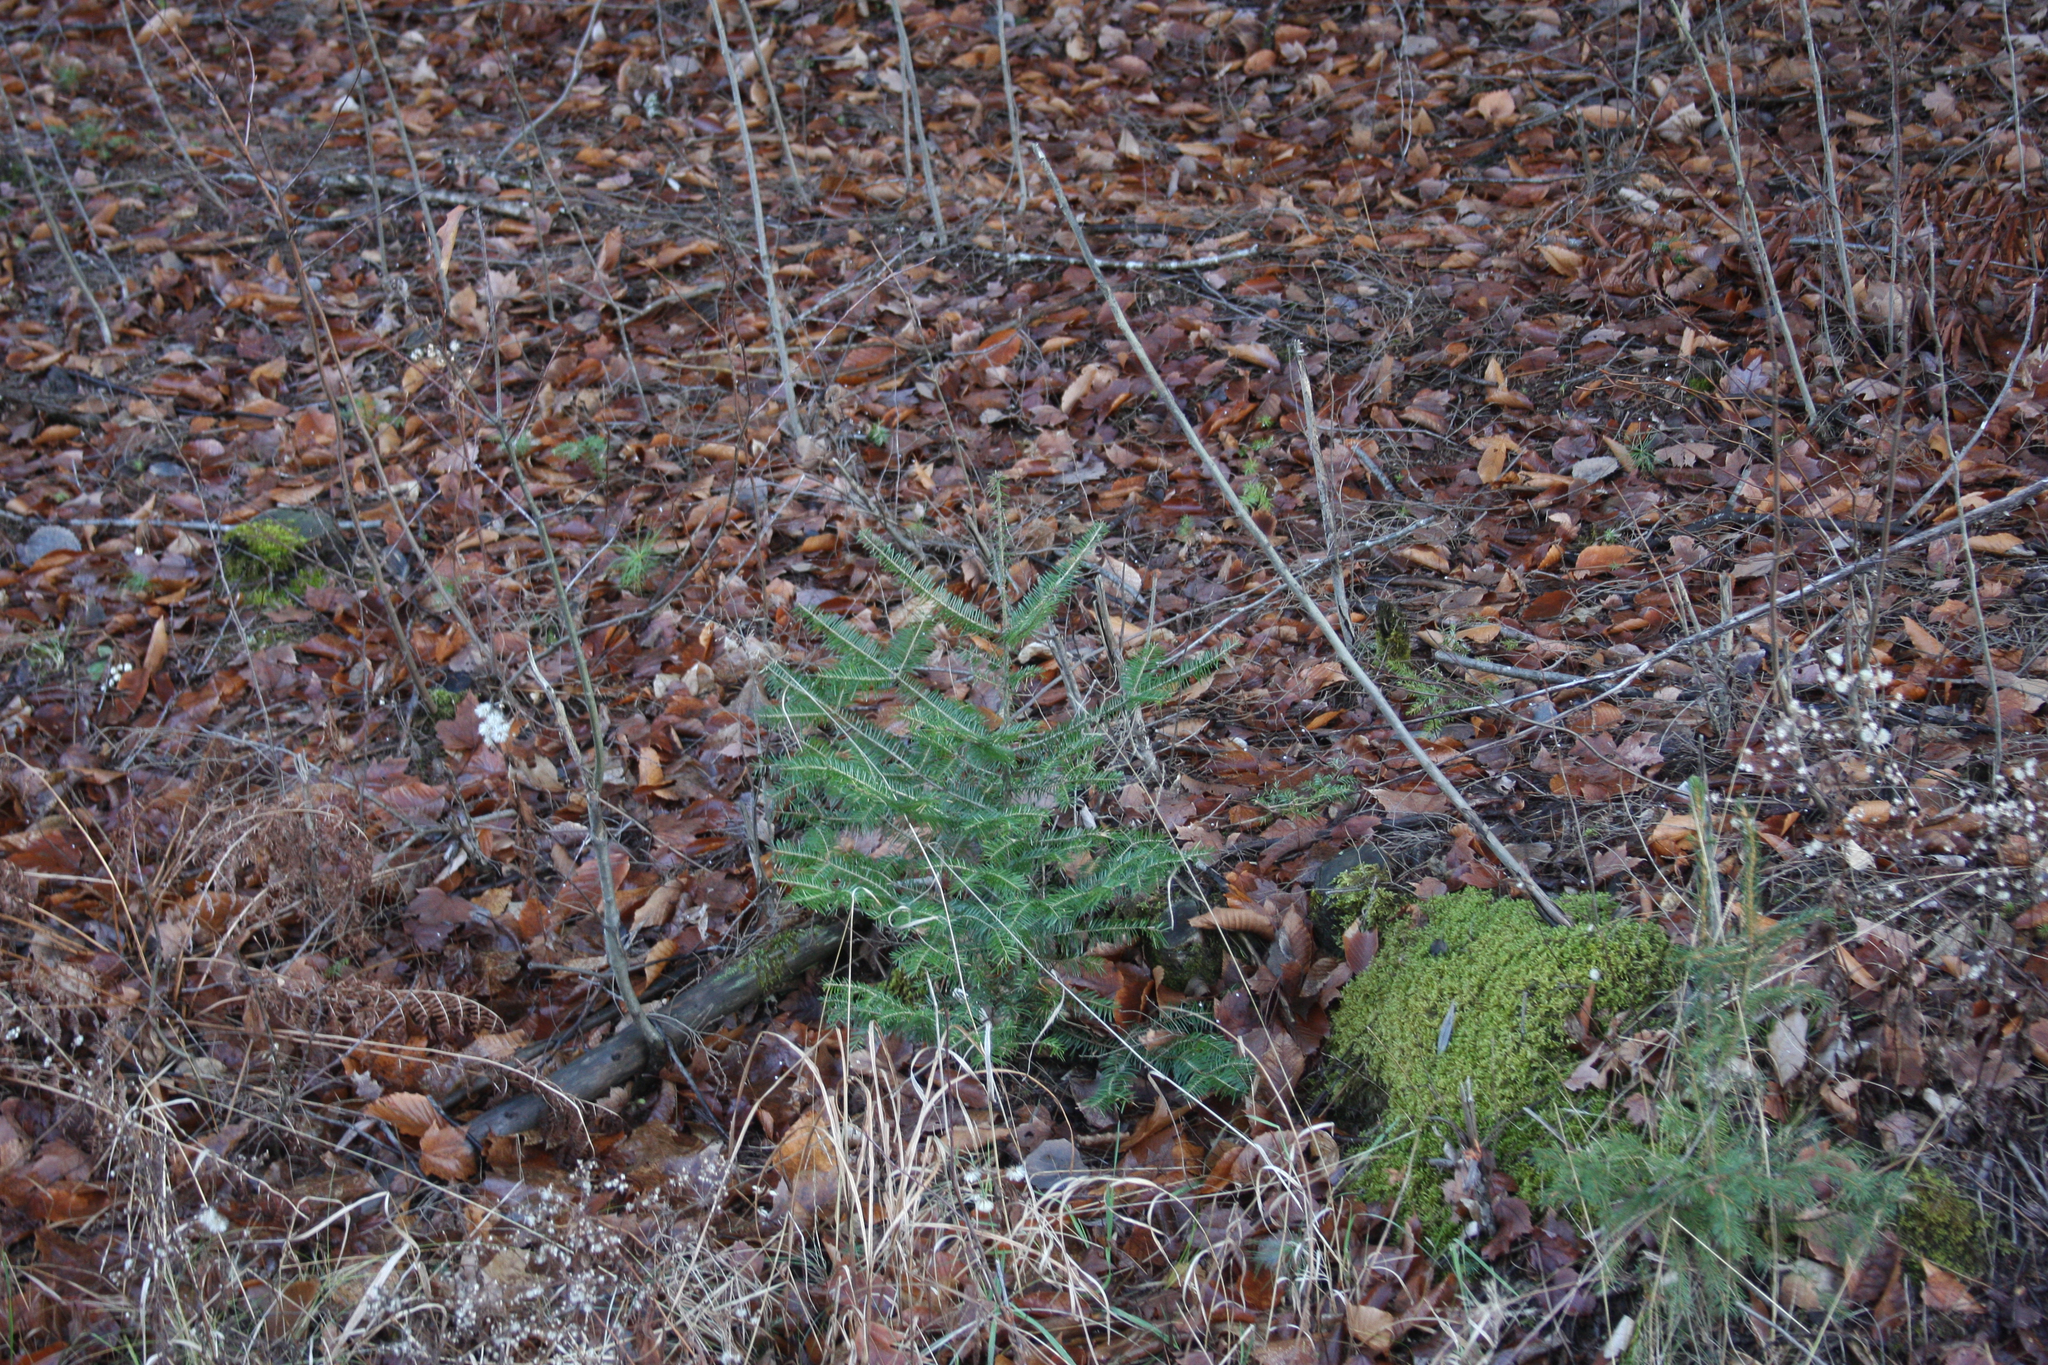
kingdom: Plantae
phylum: Tracheophyta
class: Pinopsida
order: Pinales
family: Pinaceae
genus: Abies
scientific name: Abies balsamea
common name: Balsam fir
